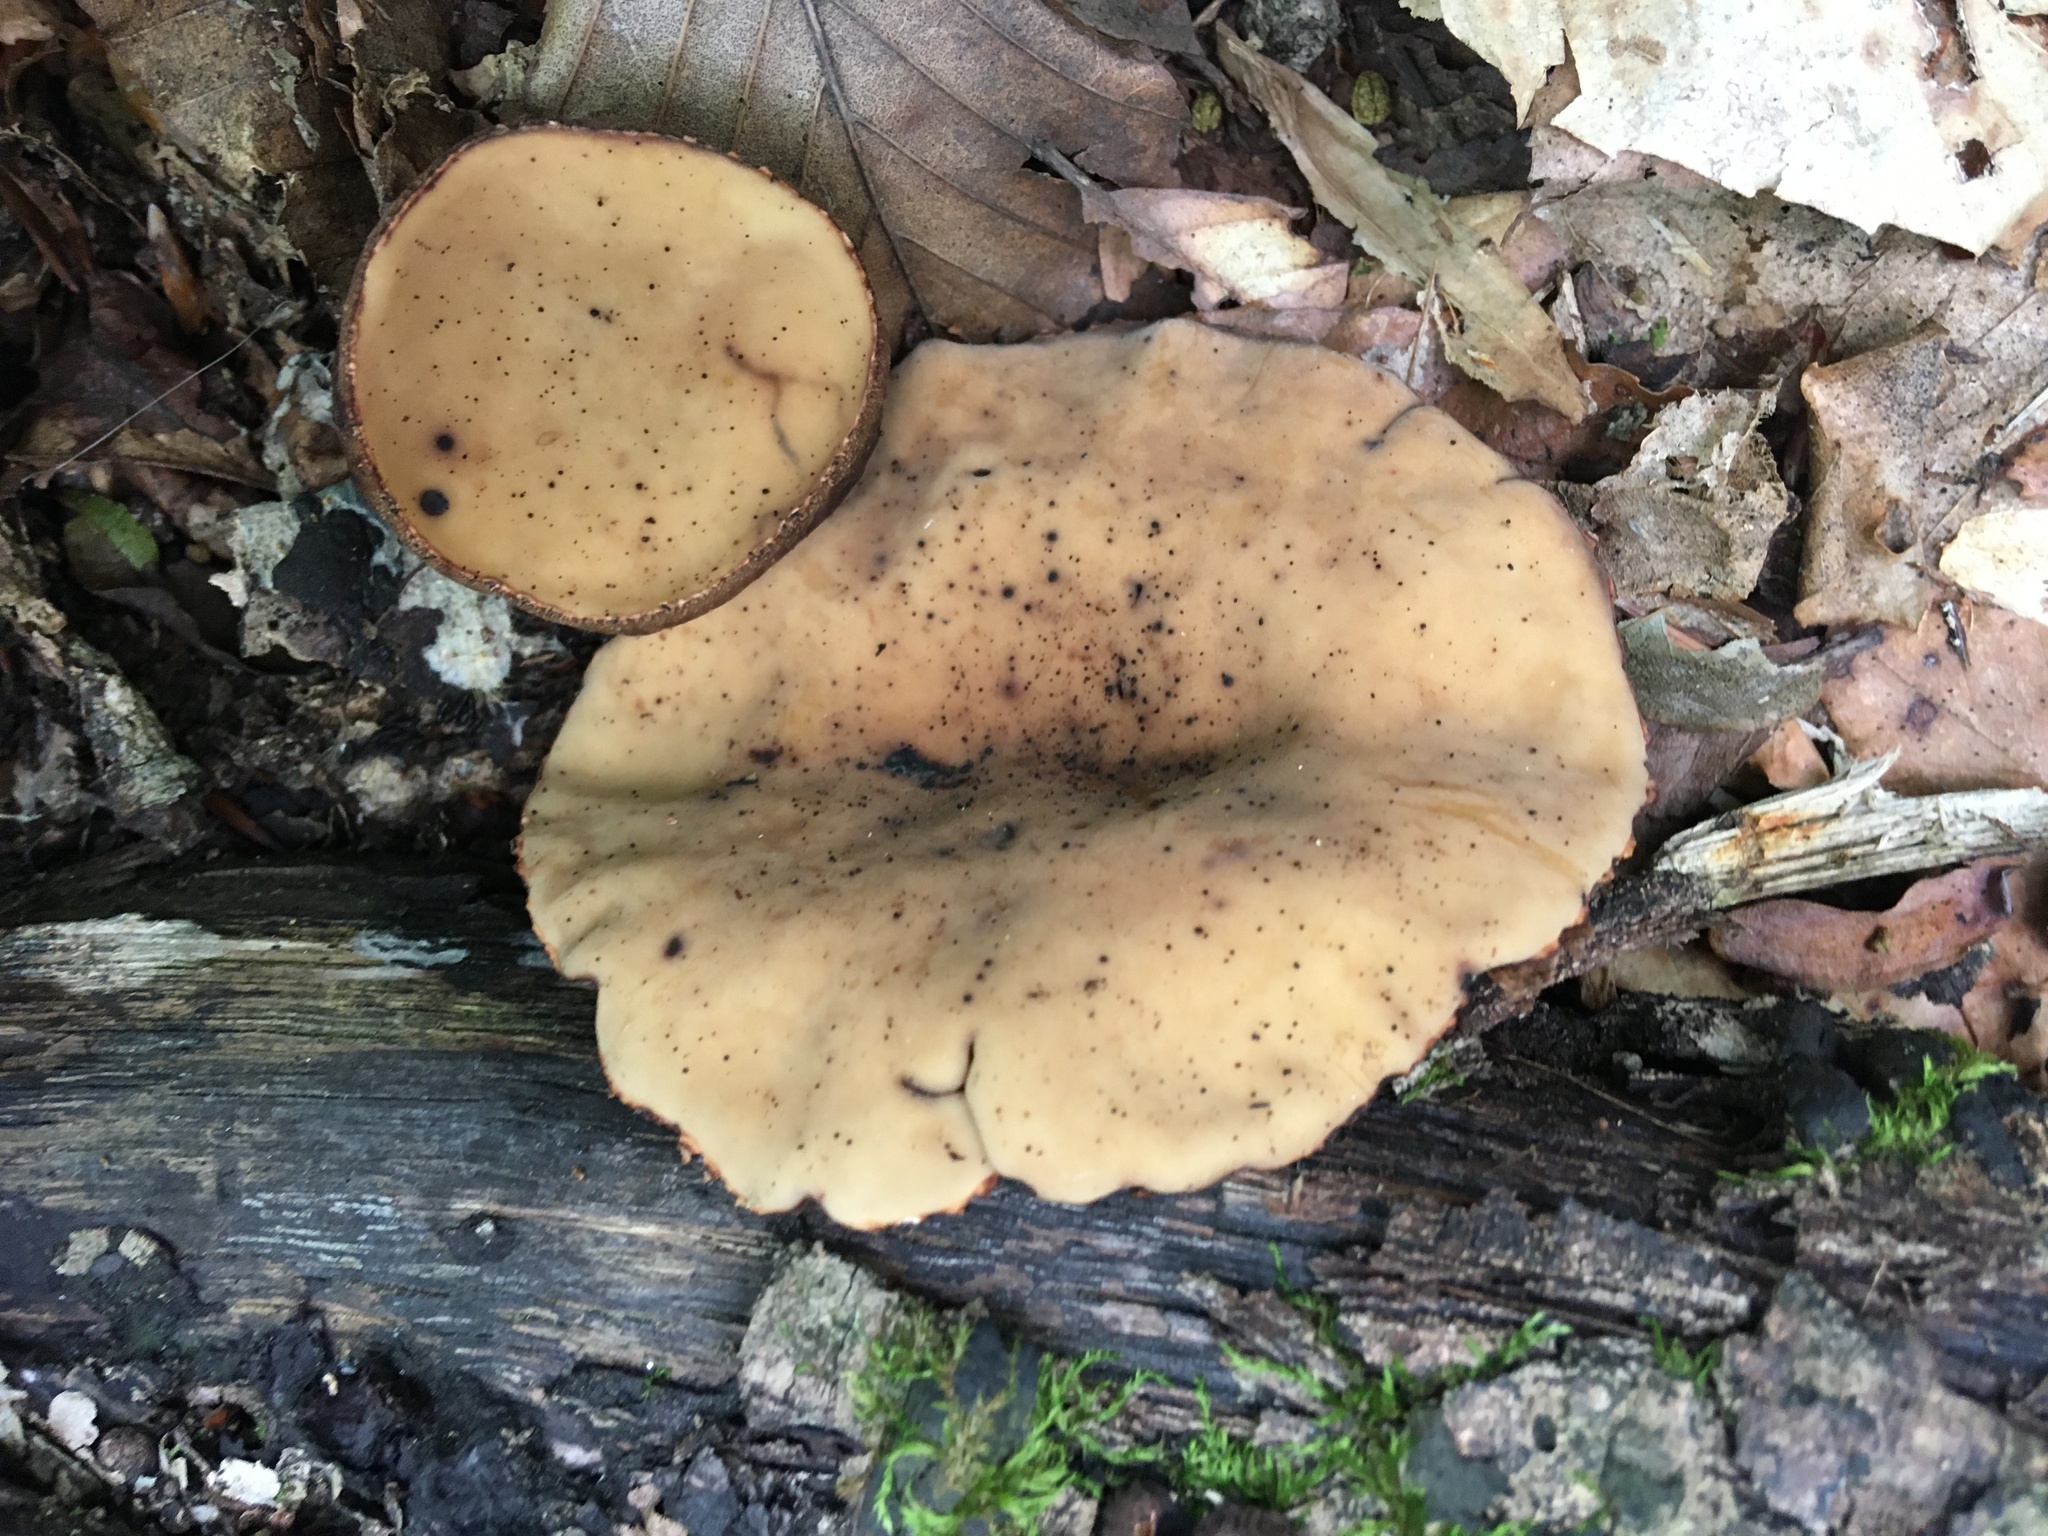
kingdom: Fungi
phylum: Ascomycota
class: Pezizomycetes
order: Pezizales
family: Sarcosomataceae
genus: Galiella
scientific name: Galiella rufa
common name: Hairy rubber cup
